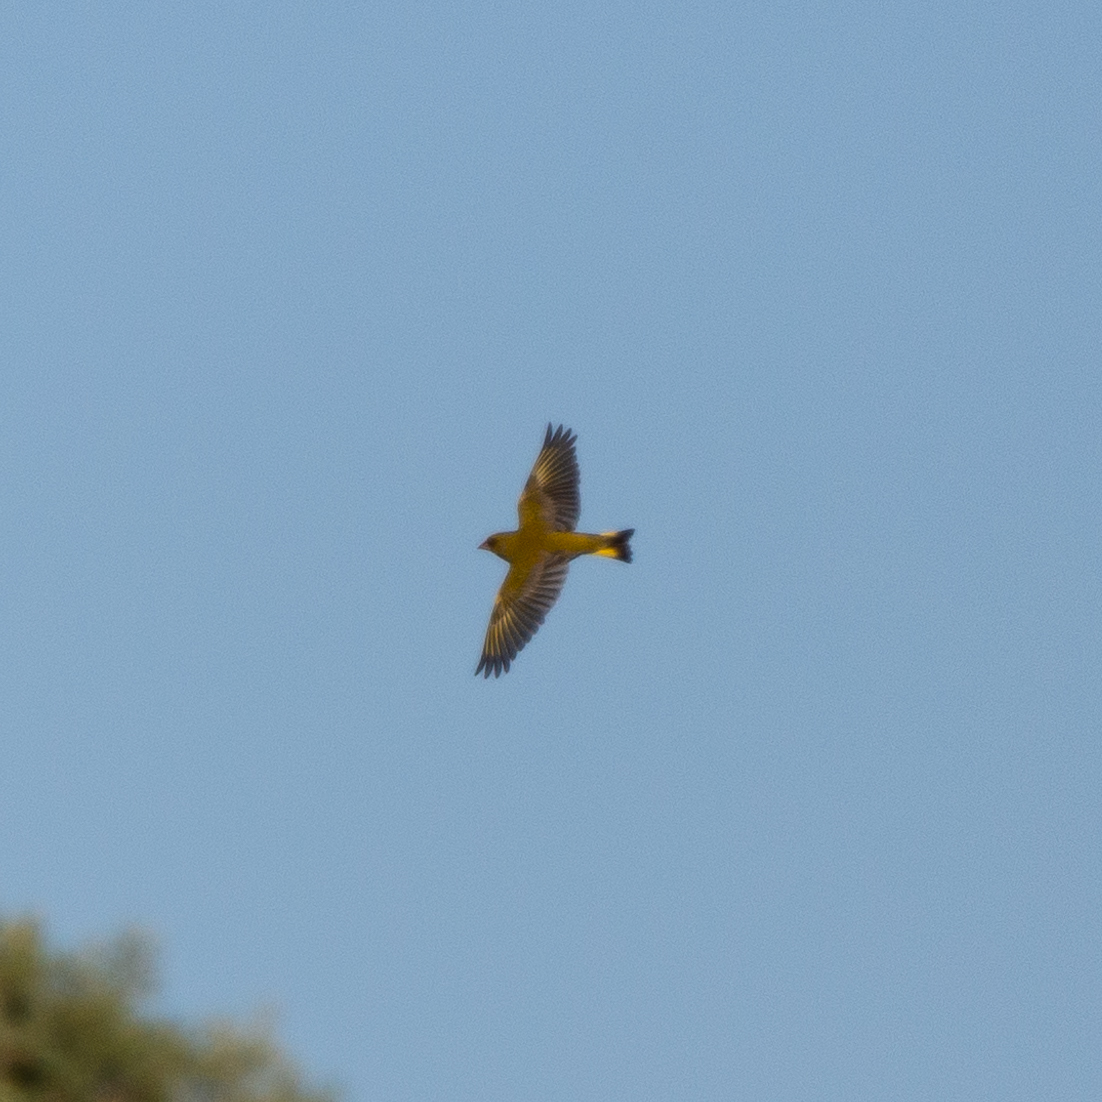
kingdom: Plantae
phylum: Tracheophyta
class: Liliopsida
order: Poales
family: Poaceae
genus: Chloris
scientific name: Chloris chloris
